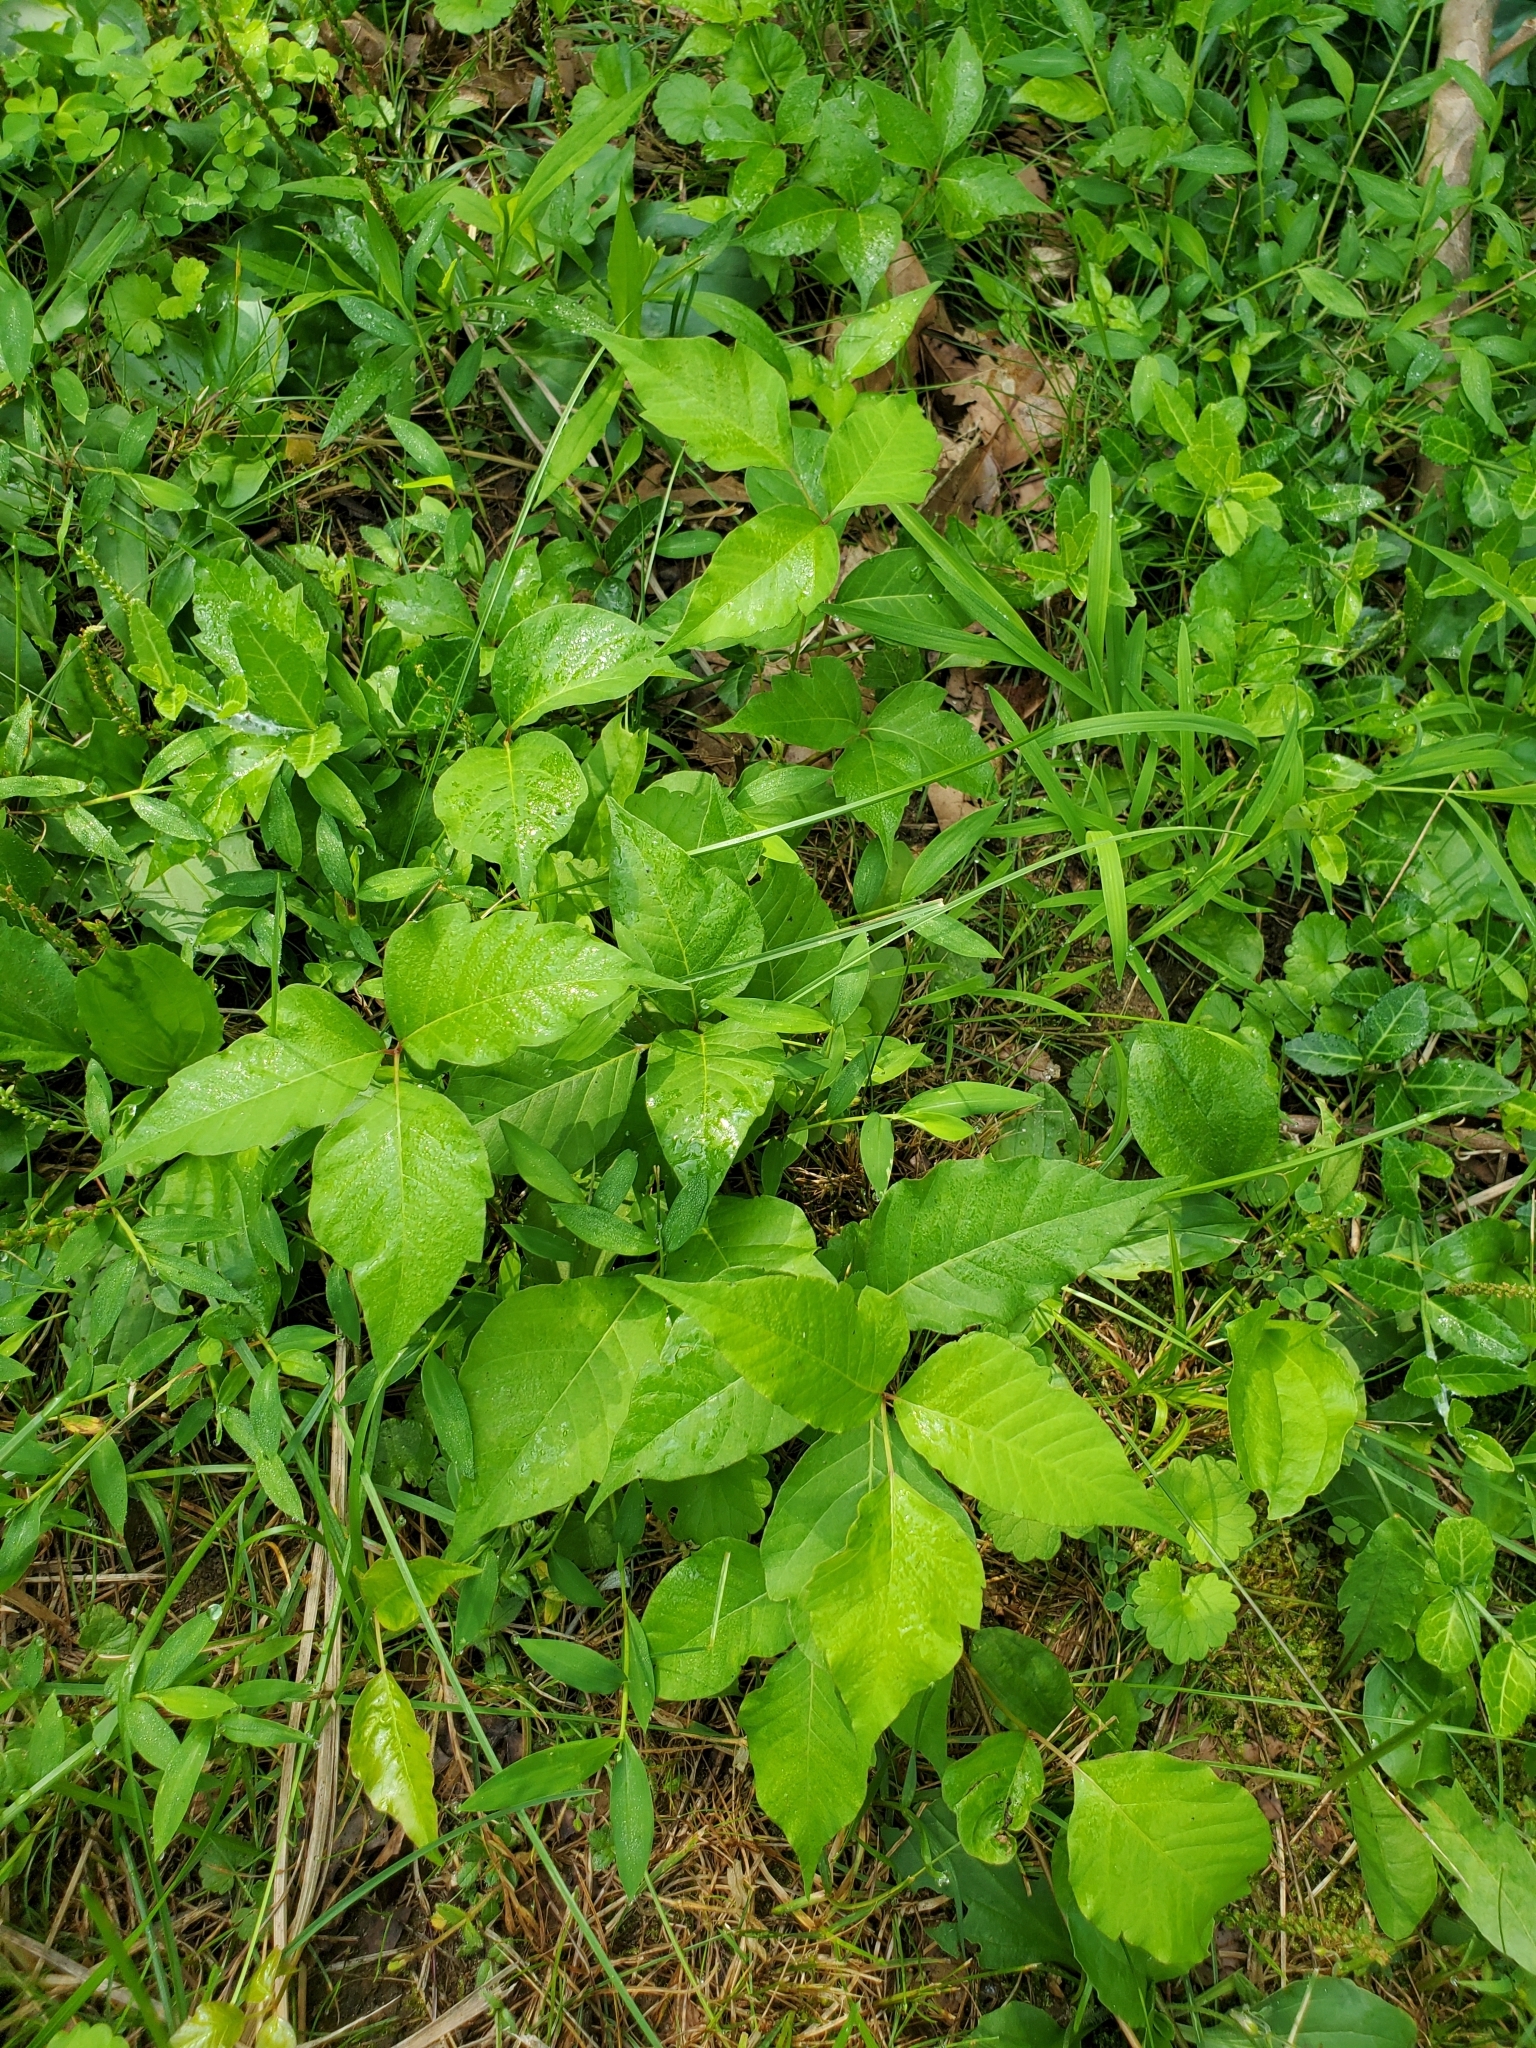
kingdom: Plantae
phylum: Tracheophyta
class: Magnoliopsida
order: Sapindales
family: Anacardiaceae
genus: Toxicodendron
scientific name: Toxicodendron radicans
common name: Poison ivy
